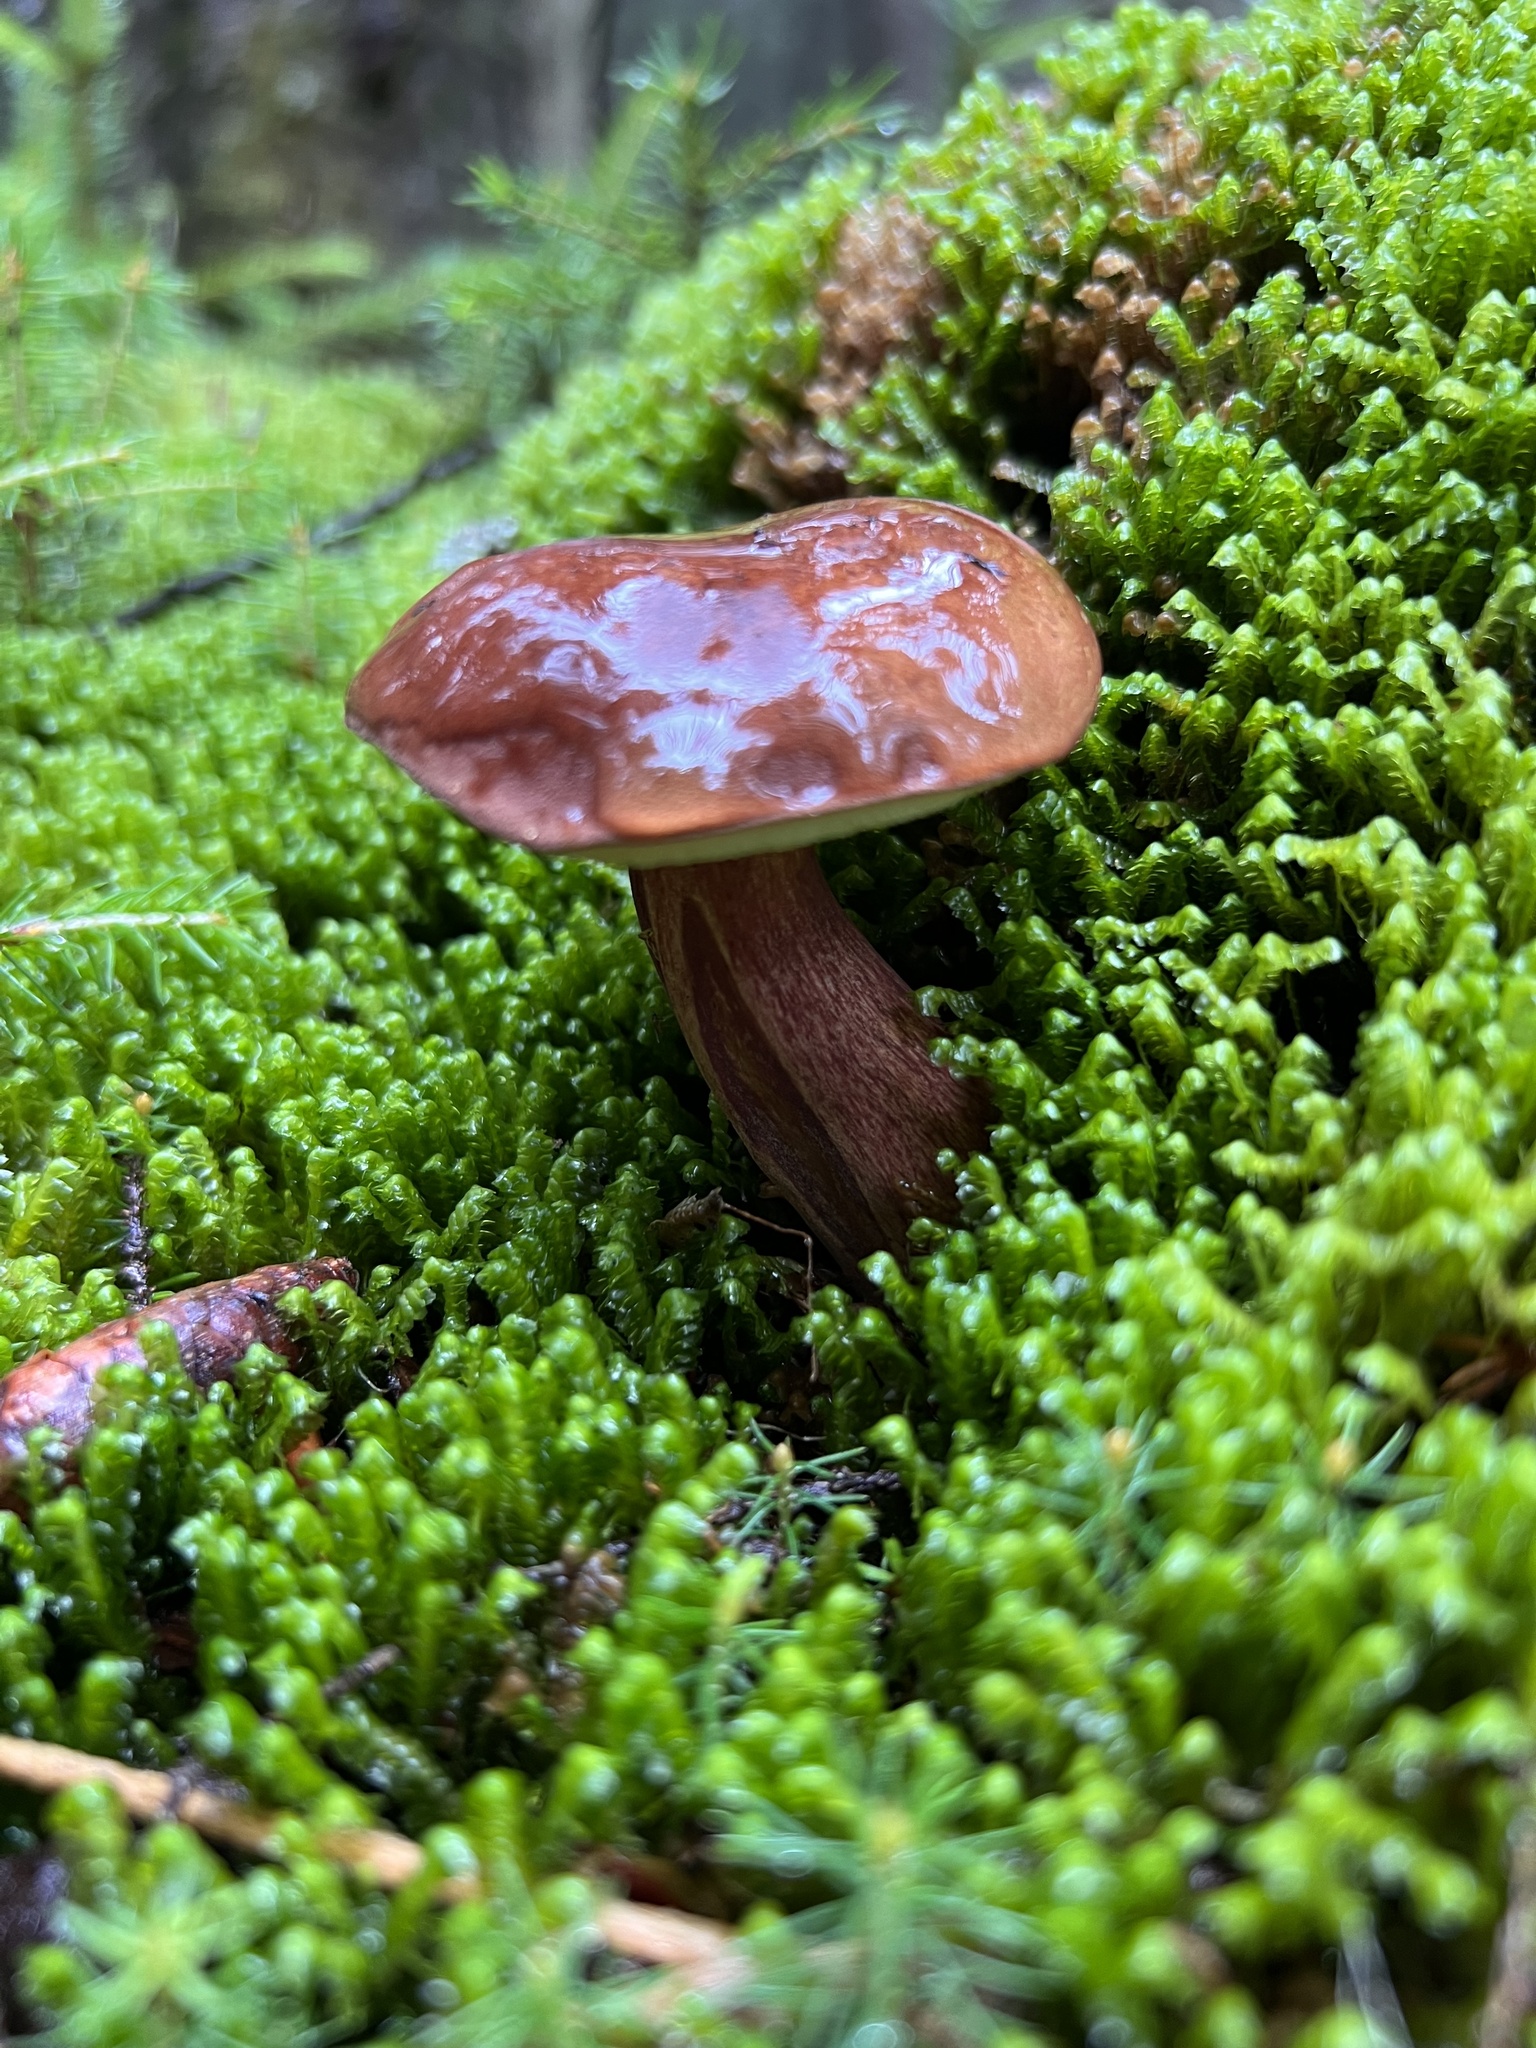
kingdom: Fungi
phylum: Basidiomycota
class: Agaricomycetes
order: Boletales
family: Boletaceae
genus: Imleria
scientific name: Imleria badia
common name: Bay bolete
